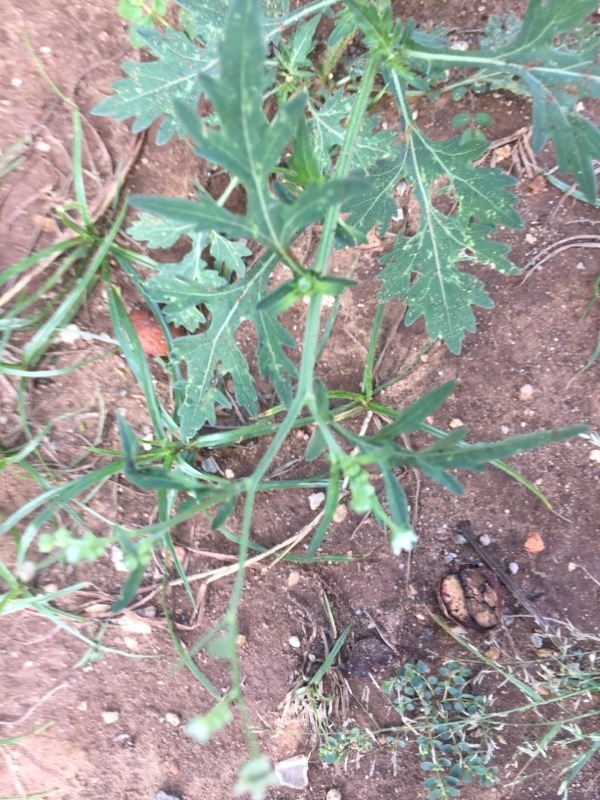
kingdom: Plantae
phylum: Tracheophyta
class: Magnoliopsida
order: Asterales
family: Asteraceae
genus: Parthenium
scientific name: Parthenium hysterophorus
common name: Santa maria feverfew
